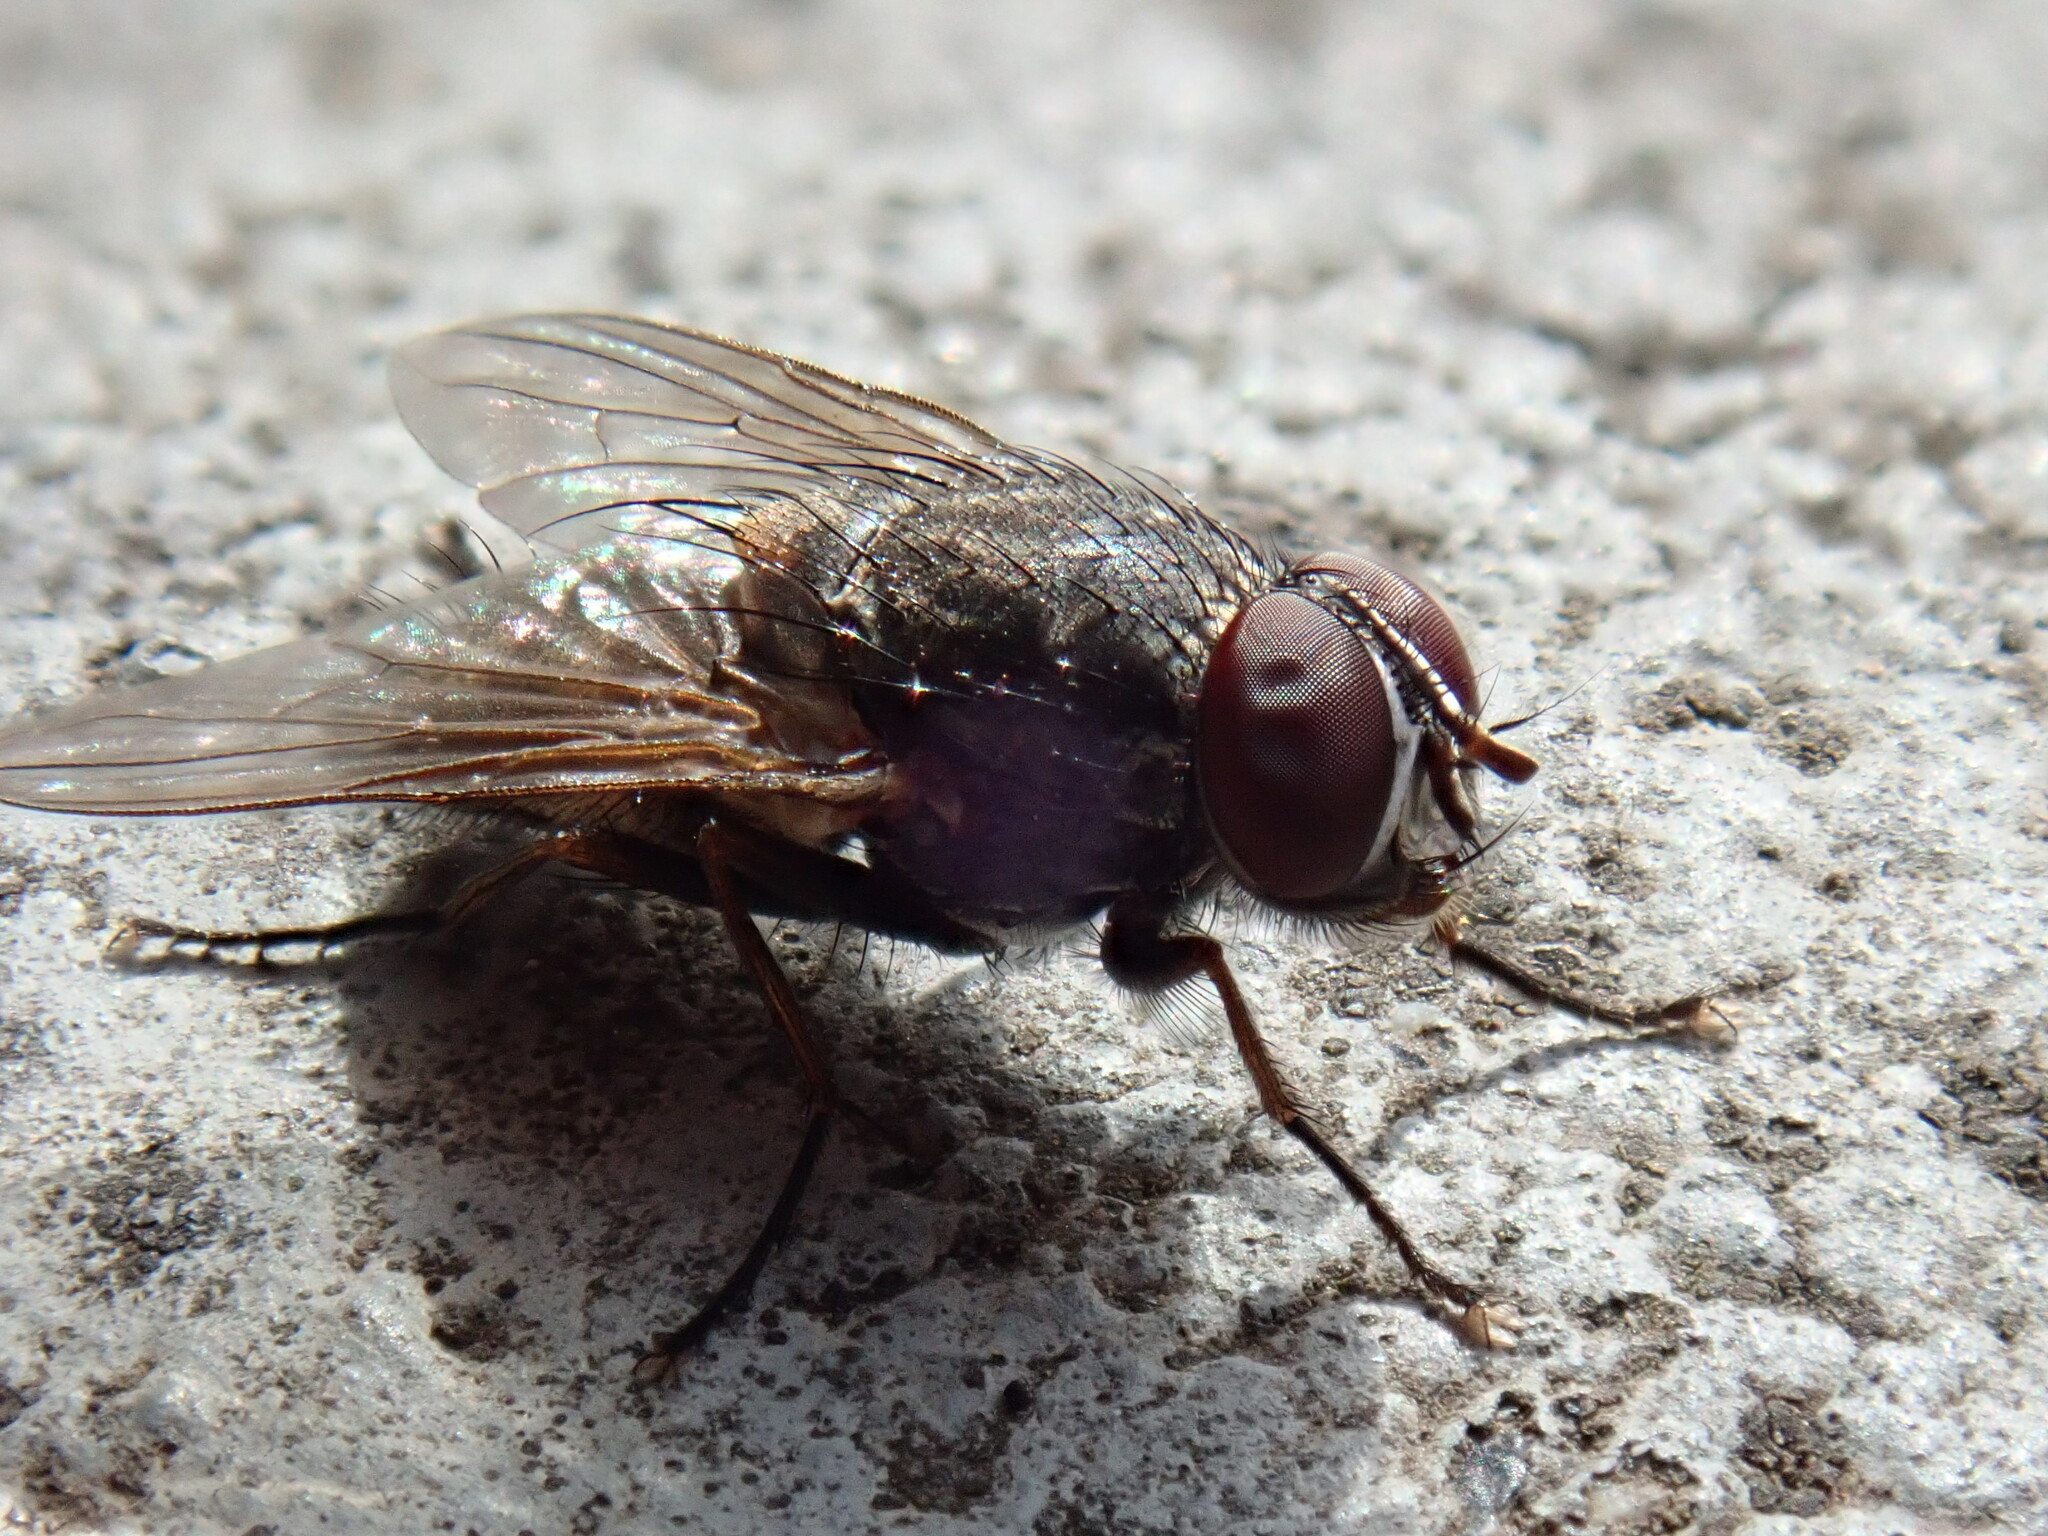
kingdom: Animalia
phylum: Arthropoda
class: Insecta
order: Diptera
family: Muscidae
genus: Muscina
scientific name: Muscina stabulans
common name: False stable fly
